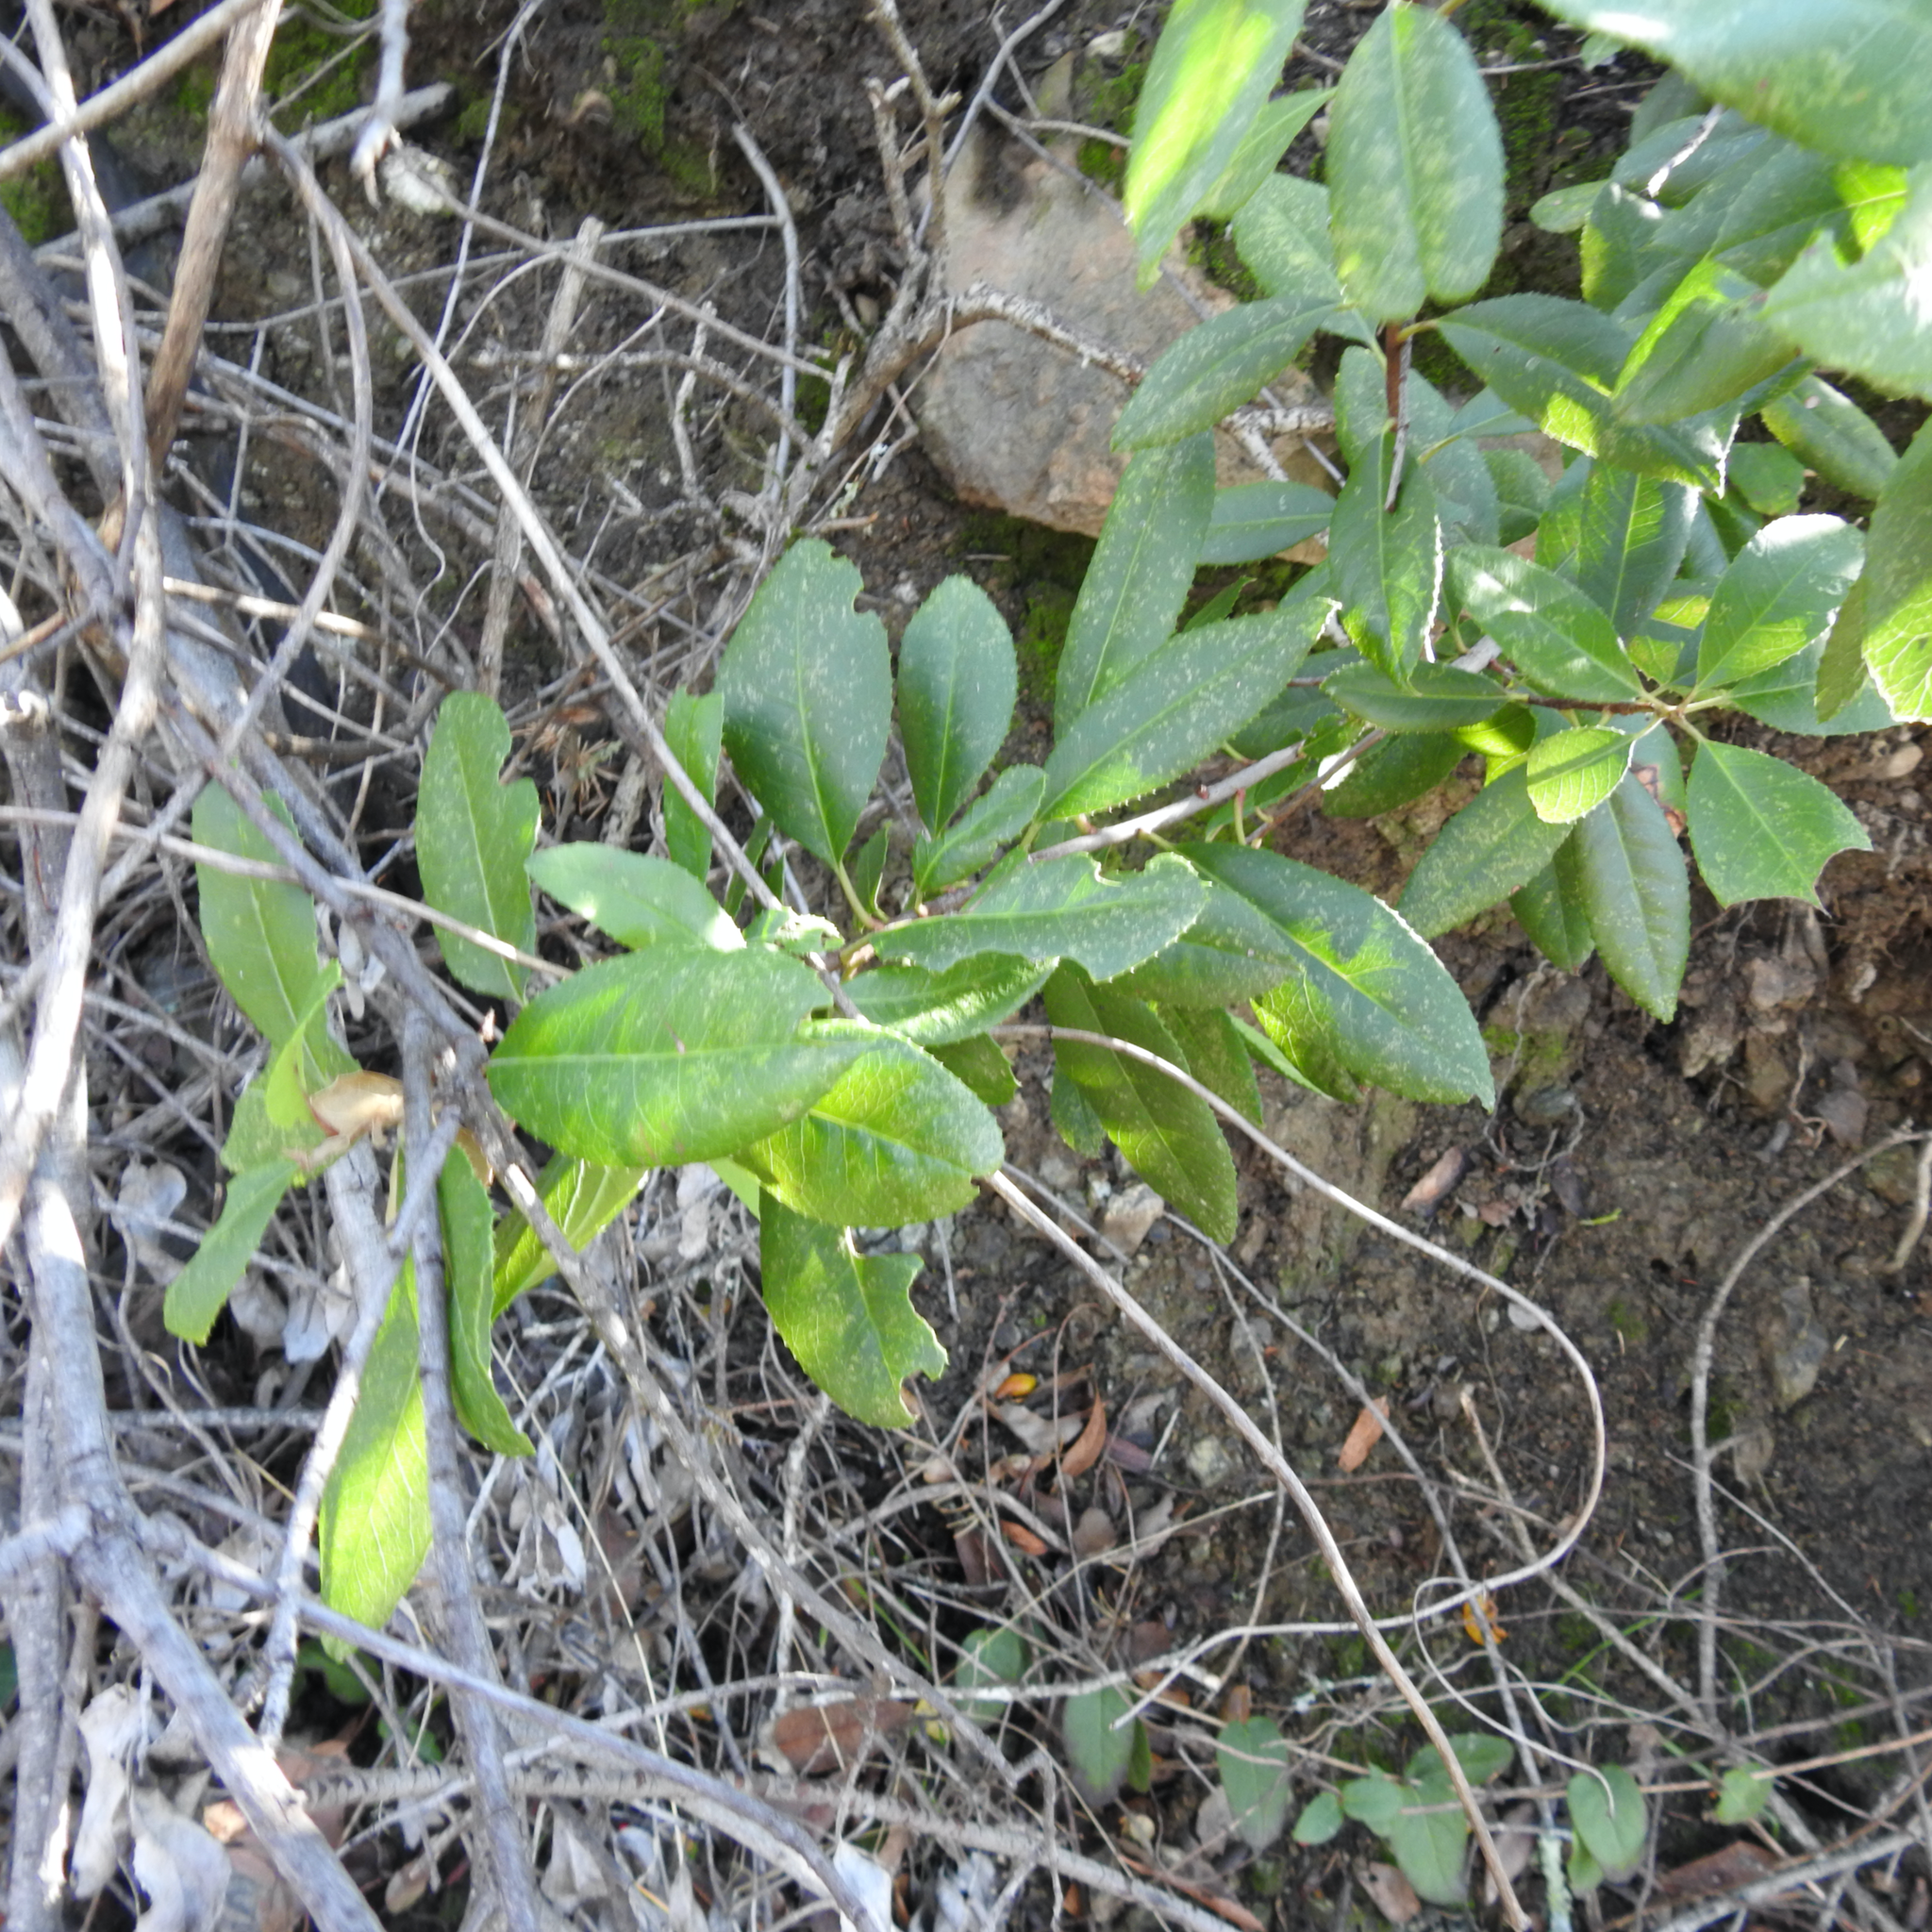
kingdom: Plantae
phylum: Tracheophyta
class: Magnoliopsida
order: Rosales
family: Rosaceae
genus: Heteromeles
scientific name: Heteromeles arbutifolia
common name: California-holly
